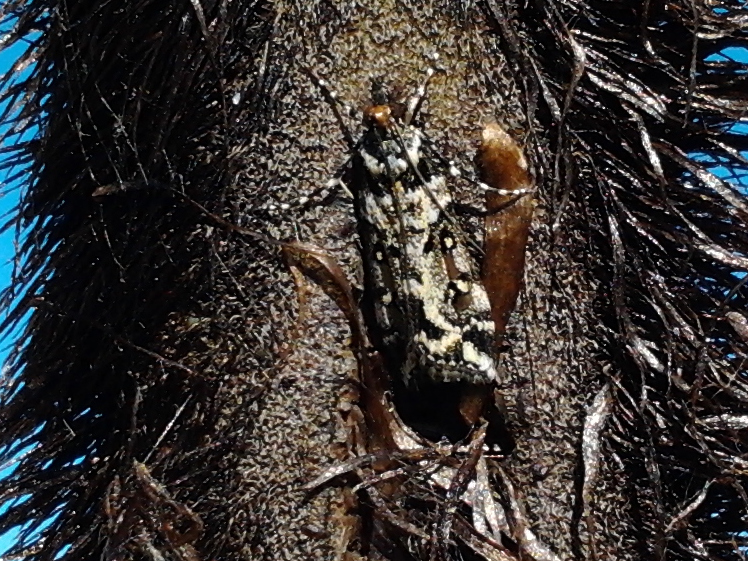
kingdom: Animalia
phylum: Arthropoda
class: Insecta
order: Lepidoptera
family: Crambidae
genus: Eudonia
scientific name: Eudonia diphtheralis
